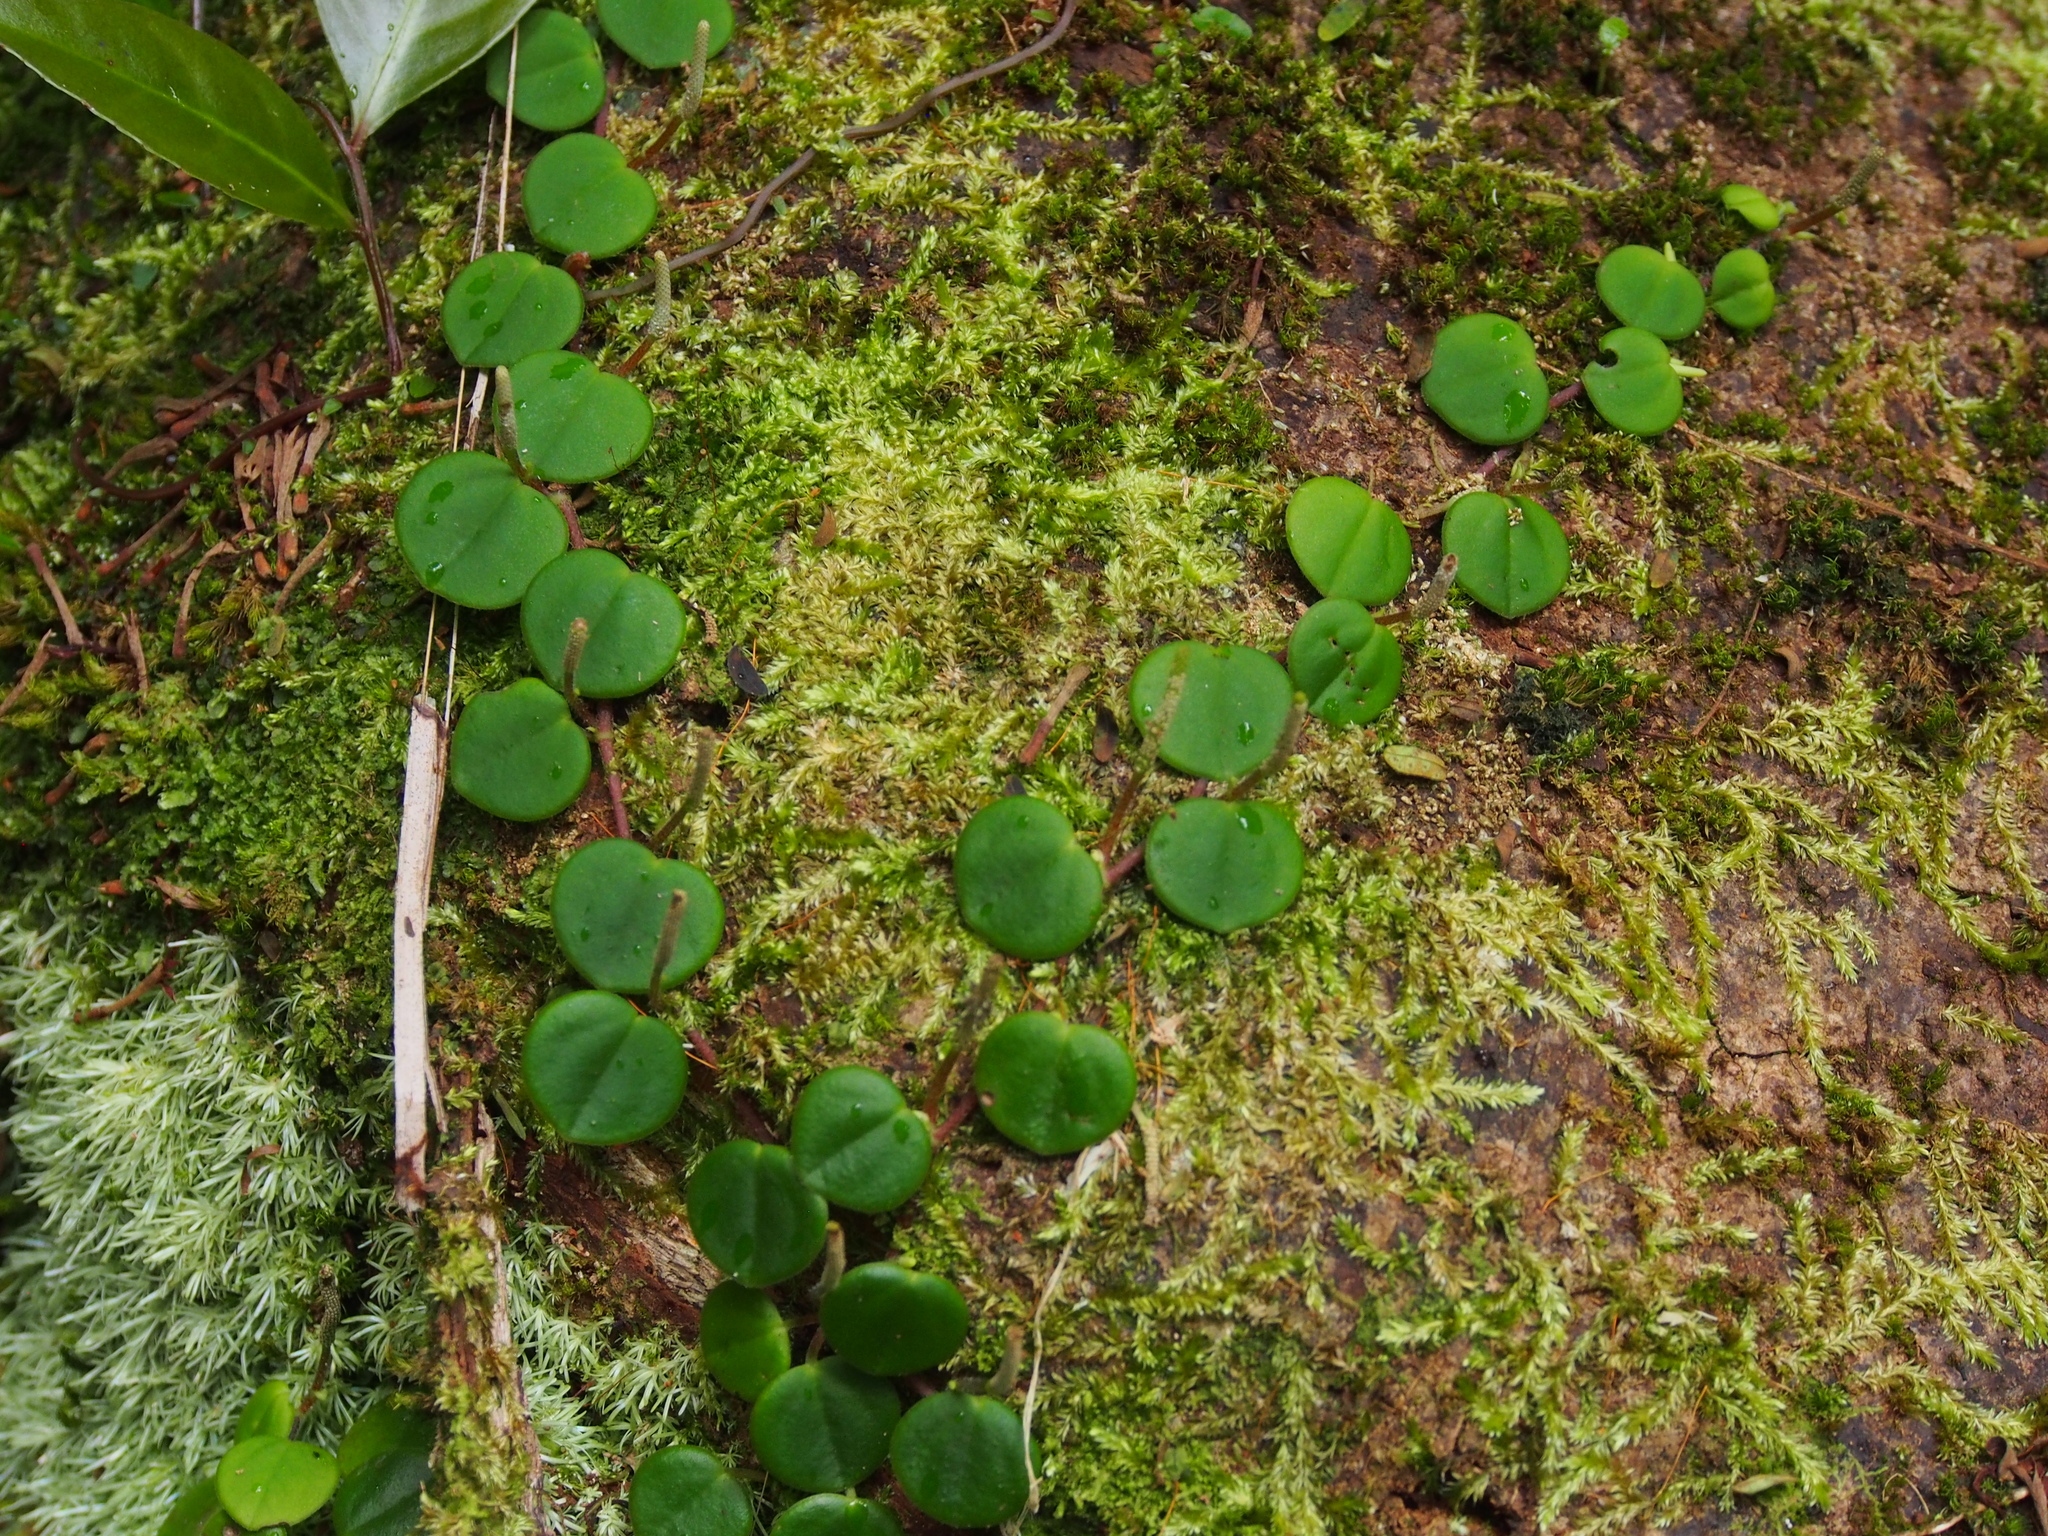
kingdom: Plantae
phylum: Tracheophyta
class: Magnoliopsida
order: Piperales
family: Piperaceae
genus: Peperomia
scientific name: Peperomia serpens
